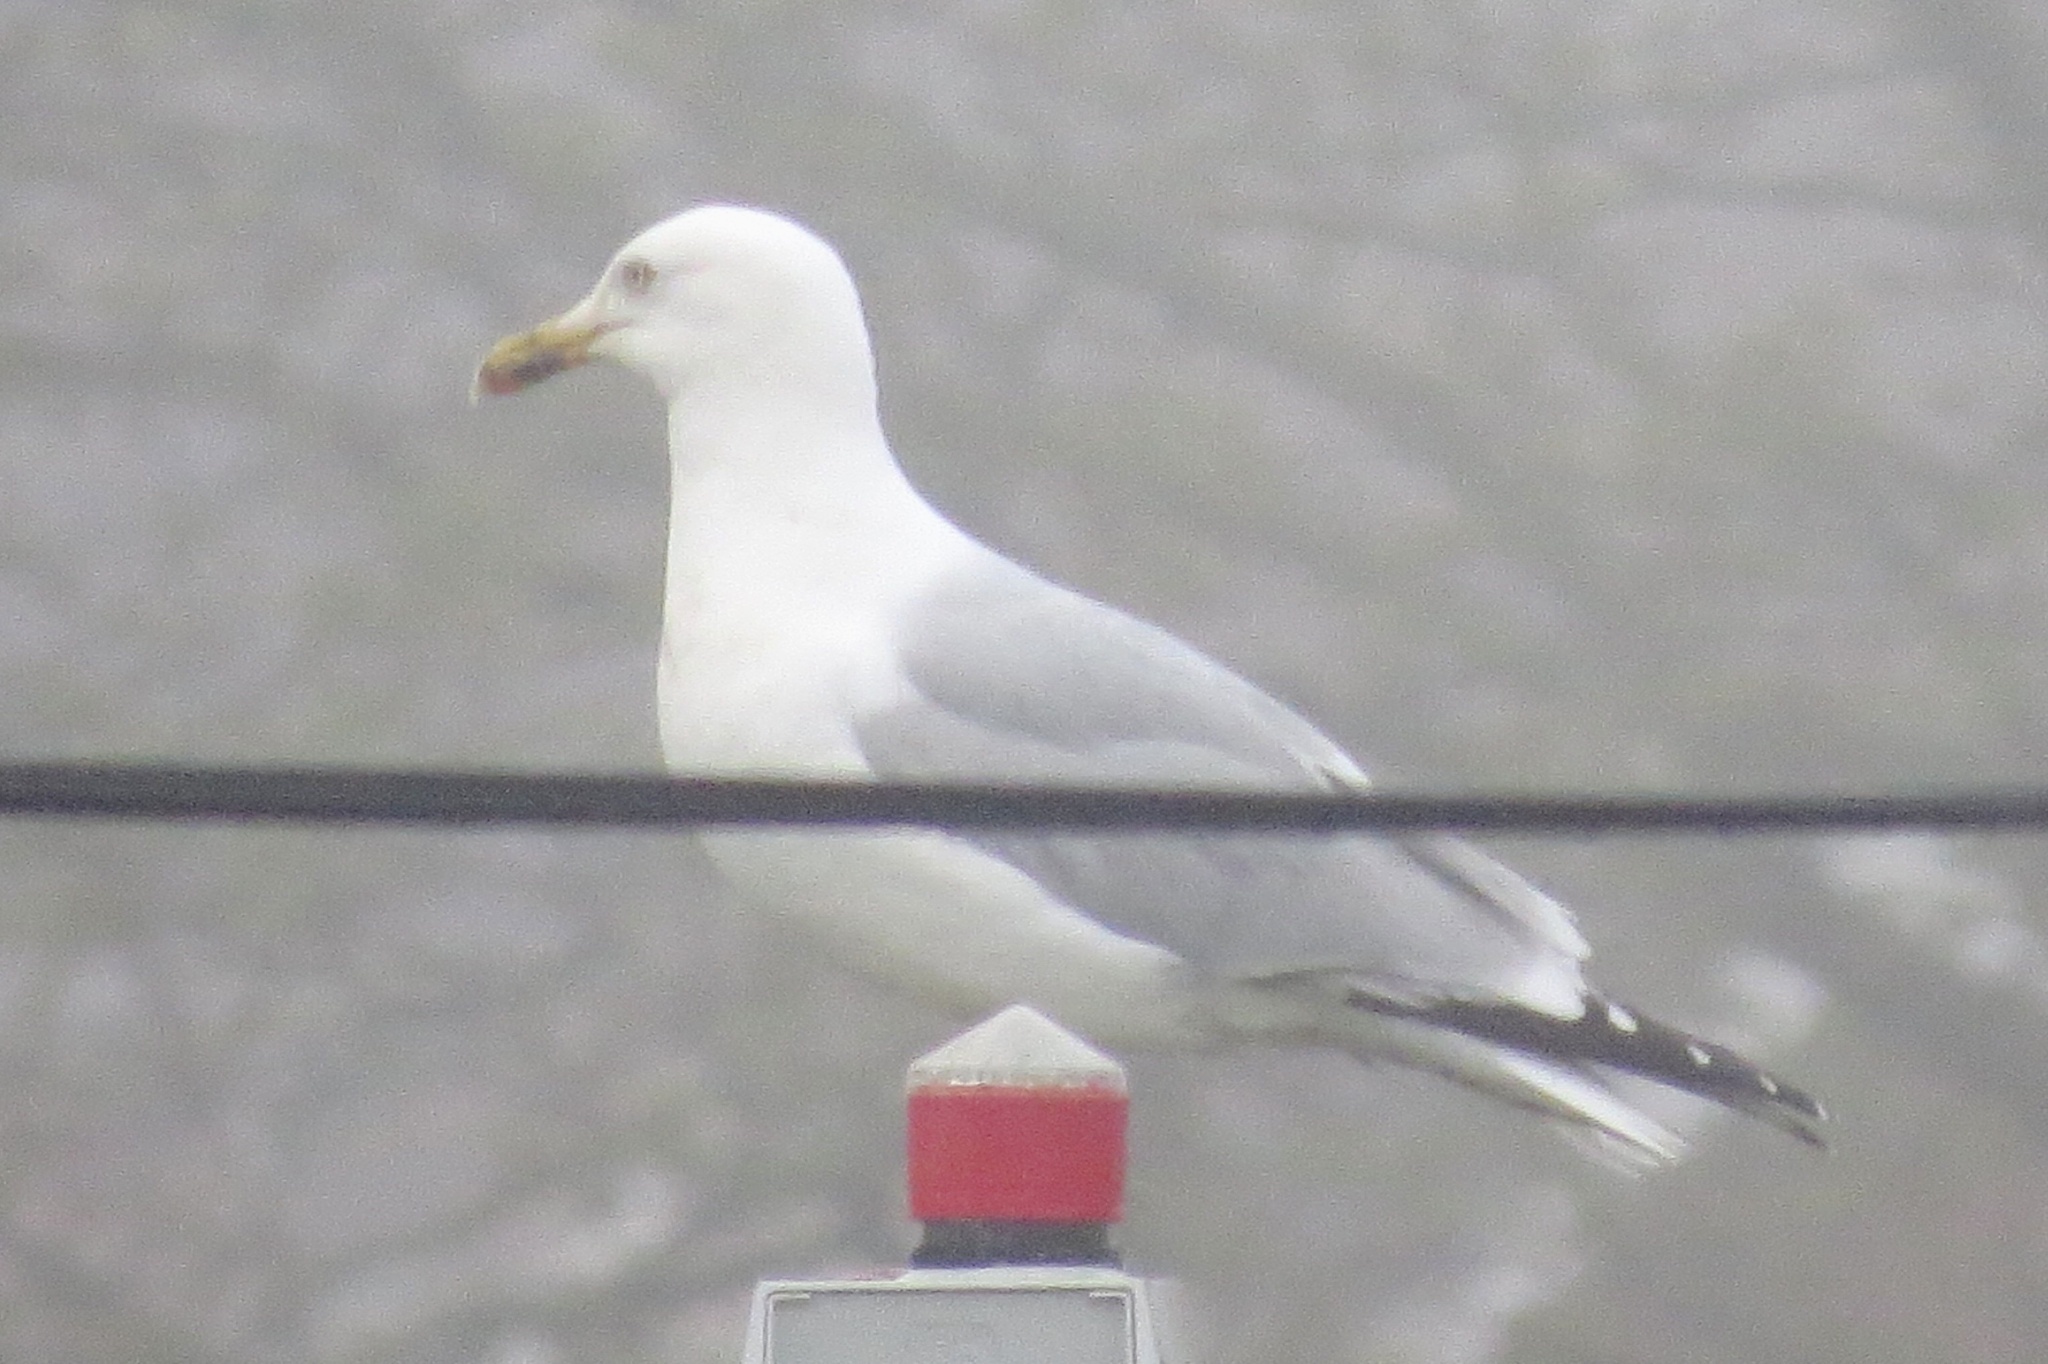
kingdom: Animalia
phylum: Chordata
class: Aves
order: Charadriiformes
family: Laridae
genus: Larus
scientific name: Larus argentatus
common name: Herring gull
